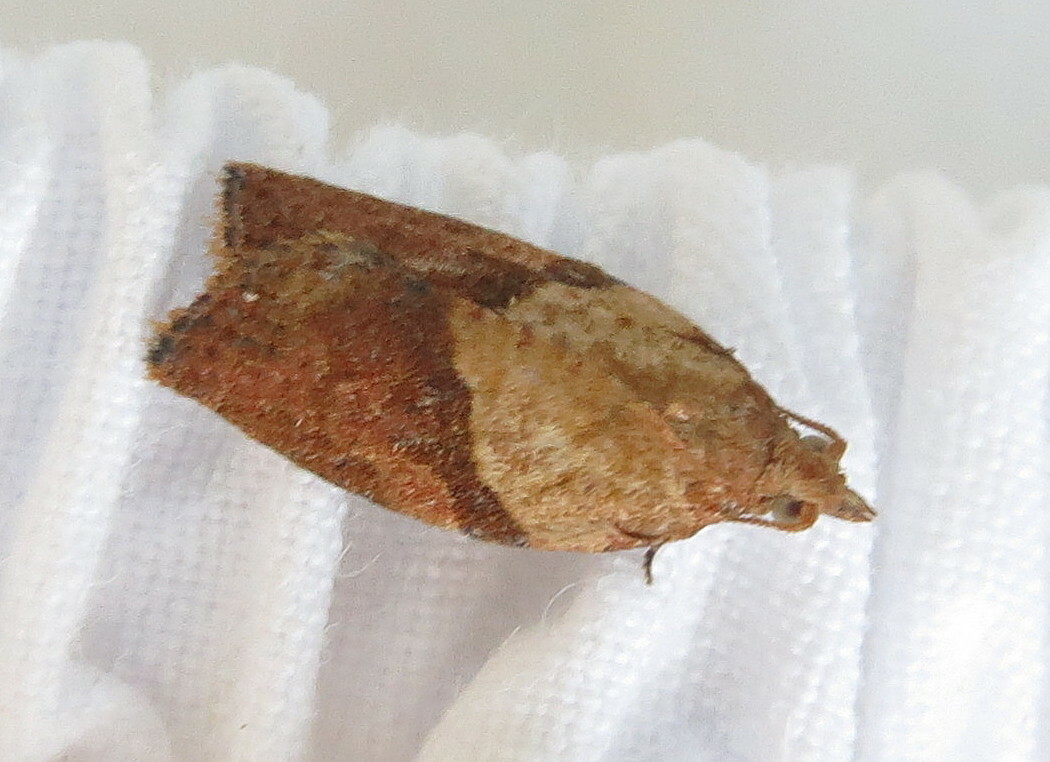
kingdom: Animalia
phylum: Arthropoda
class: Insecta
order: Lepidoptera
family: Tortricidae
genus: Epiphyas
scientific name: Epiphyas postvittana
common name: Light brown apple moth
